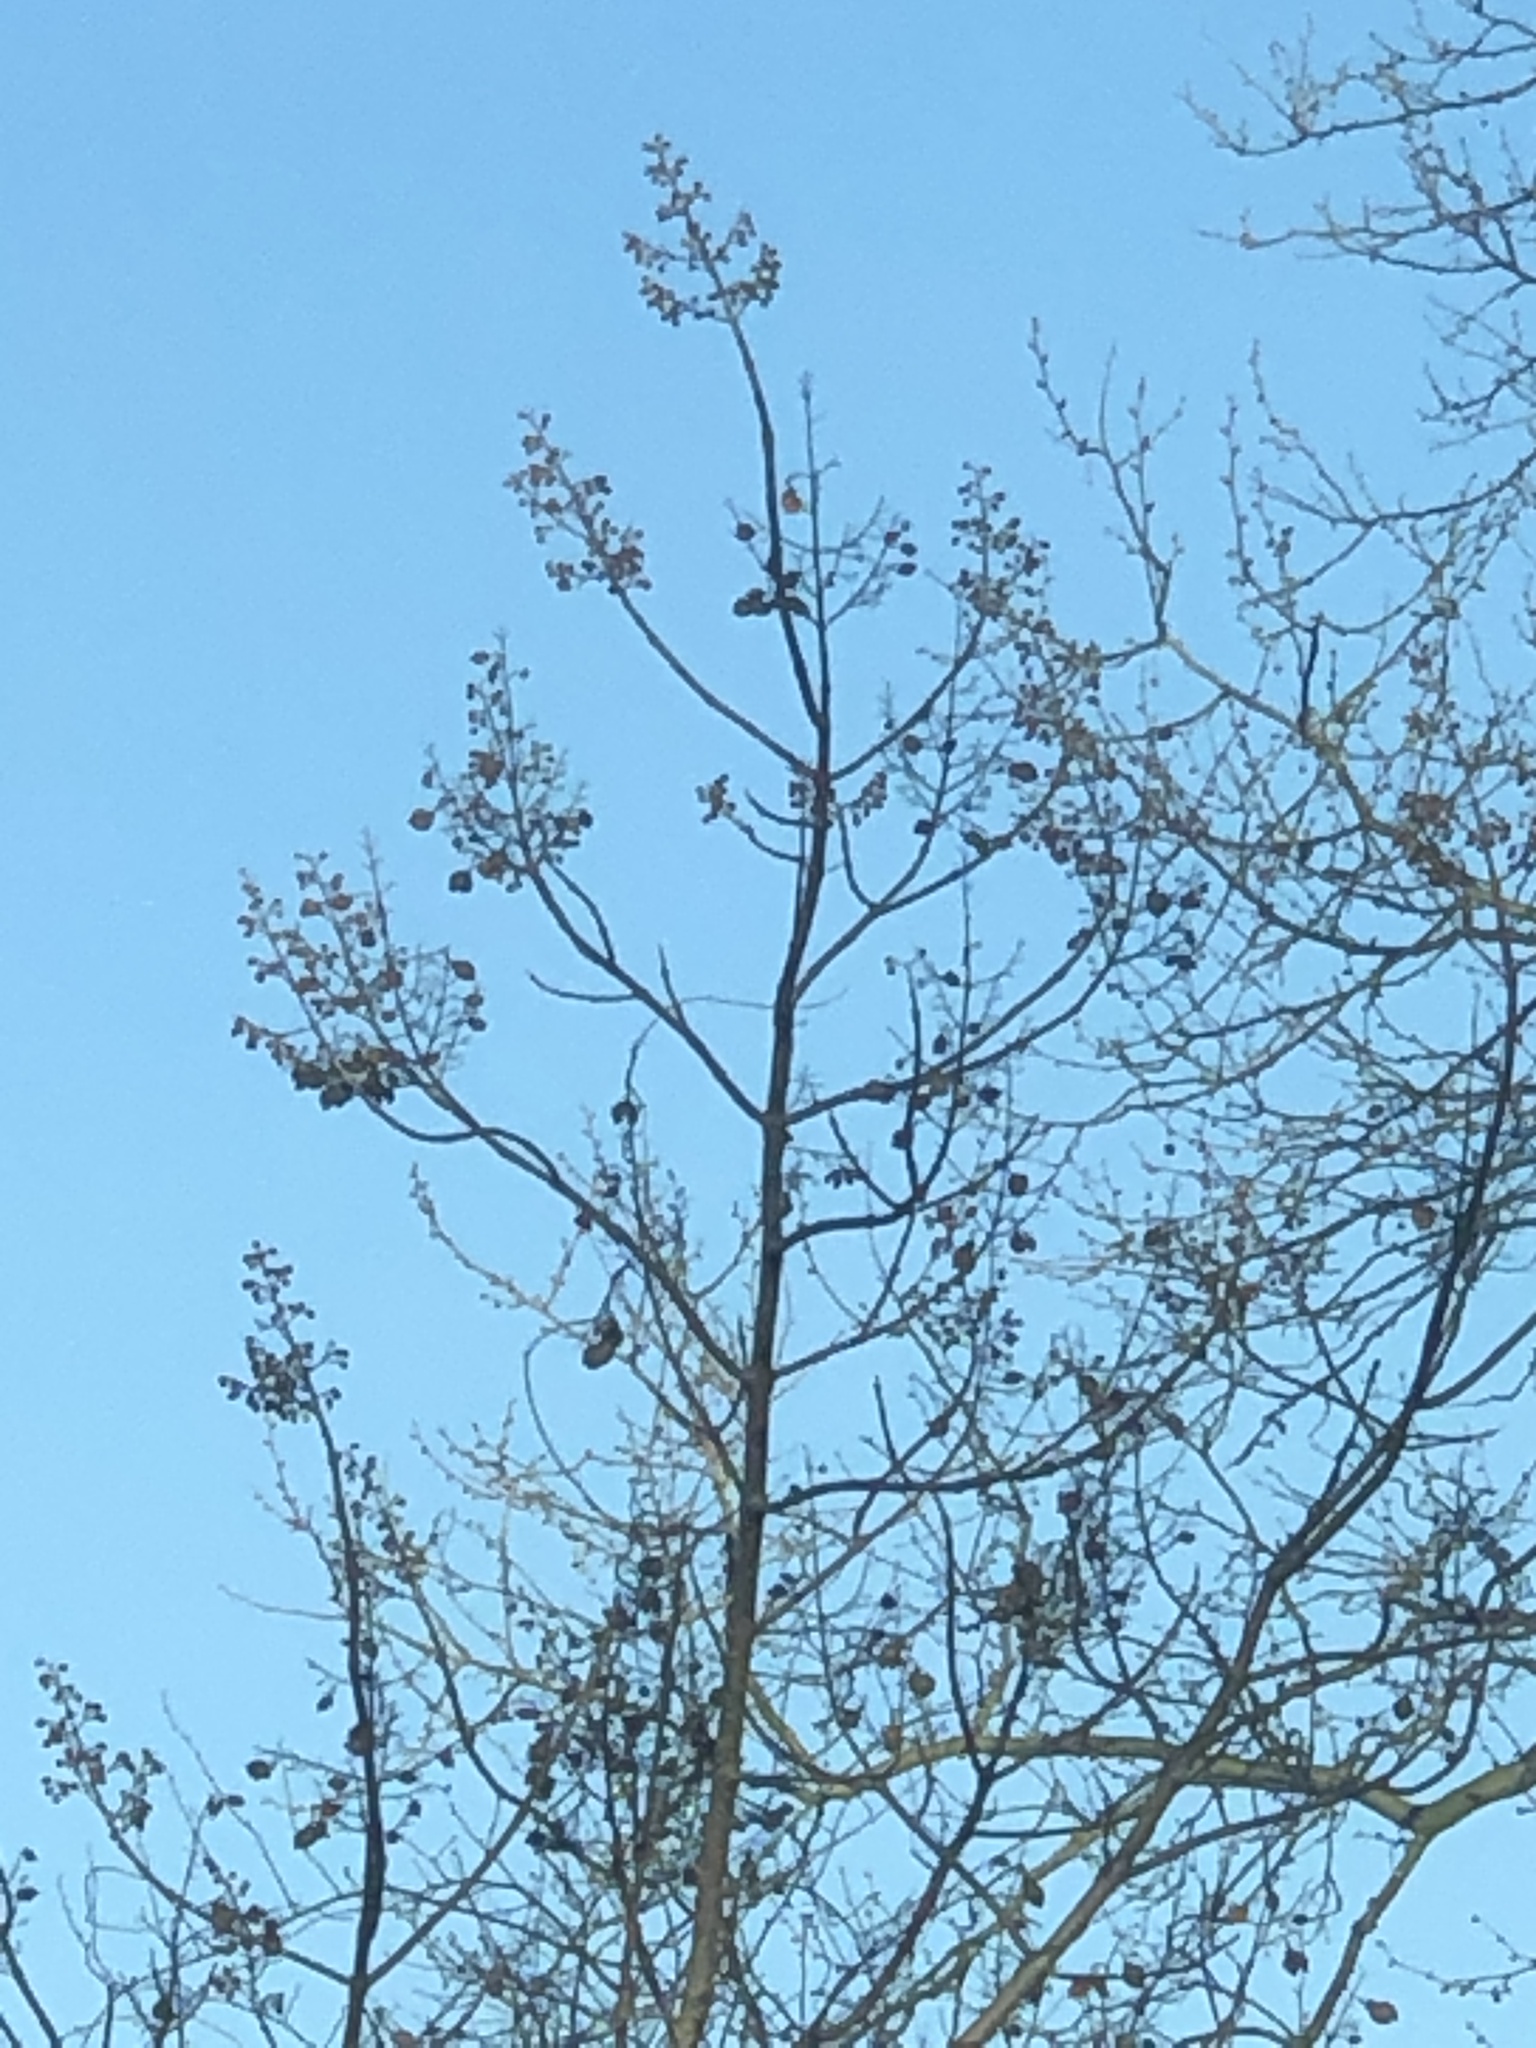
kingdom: Plantae
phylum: Tracheophyta
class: Magnoliopsida
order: Lamiales
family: Paulowniaceae
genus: Paulownia
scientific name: Paulownia tomentosa
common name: Foxglove-tree
